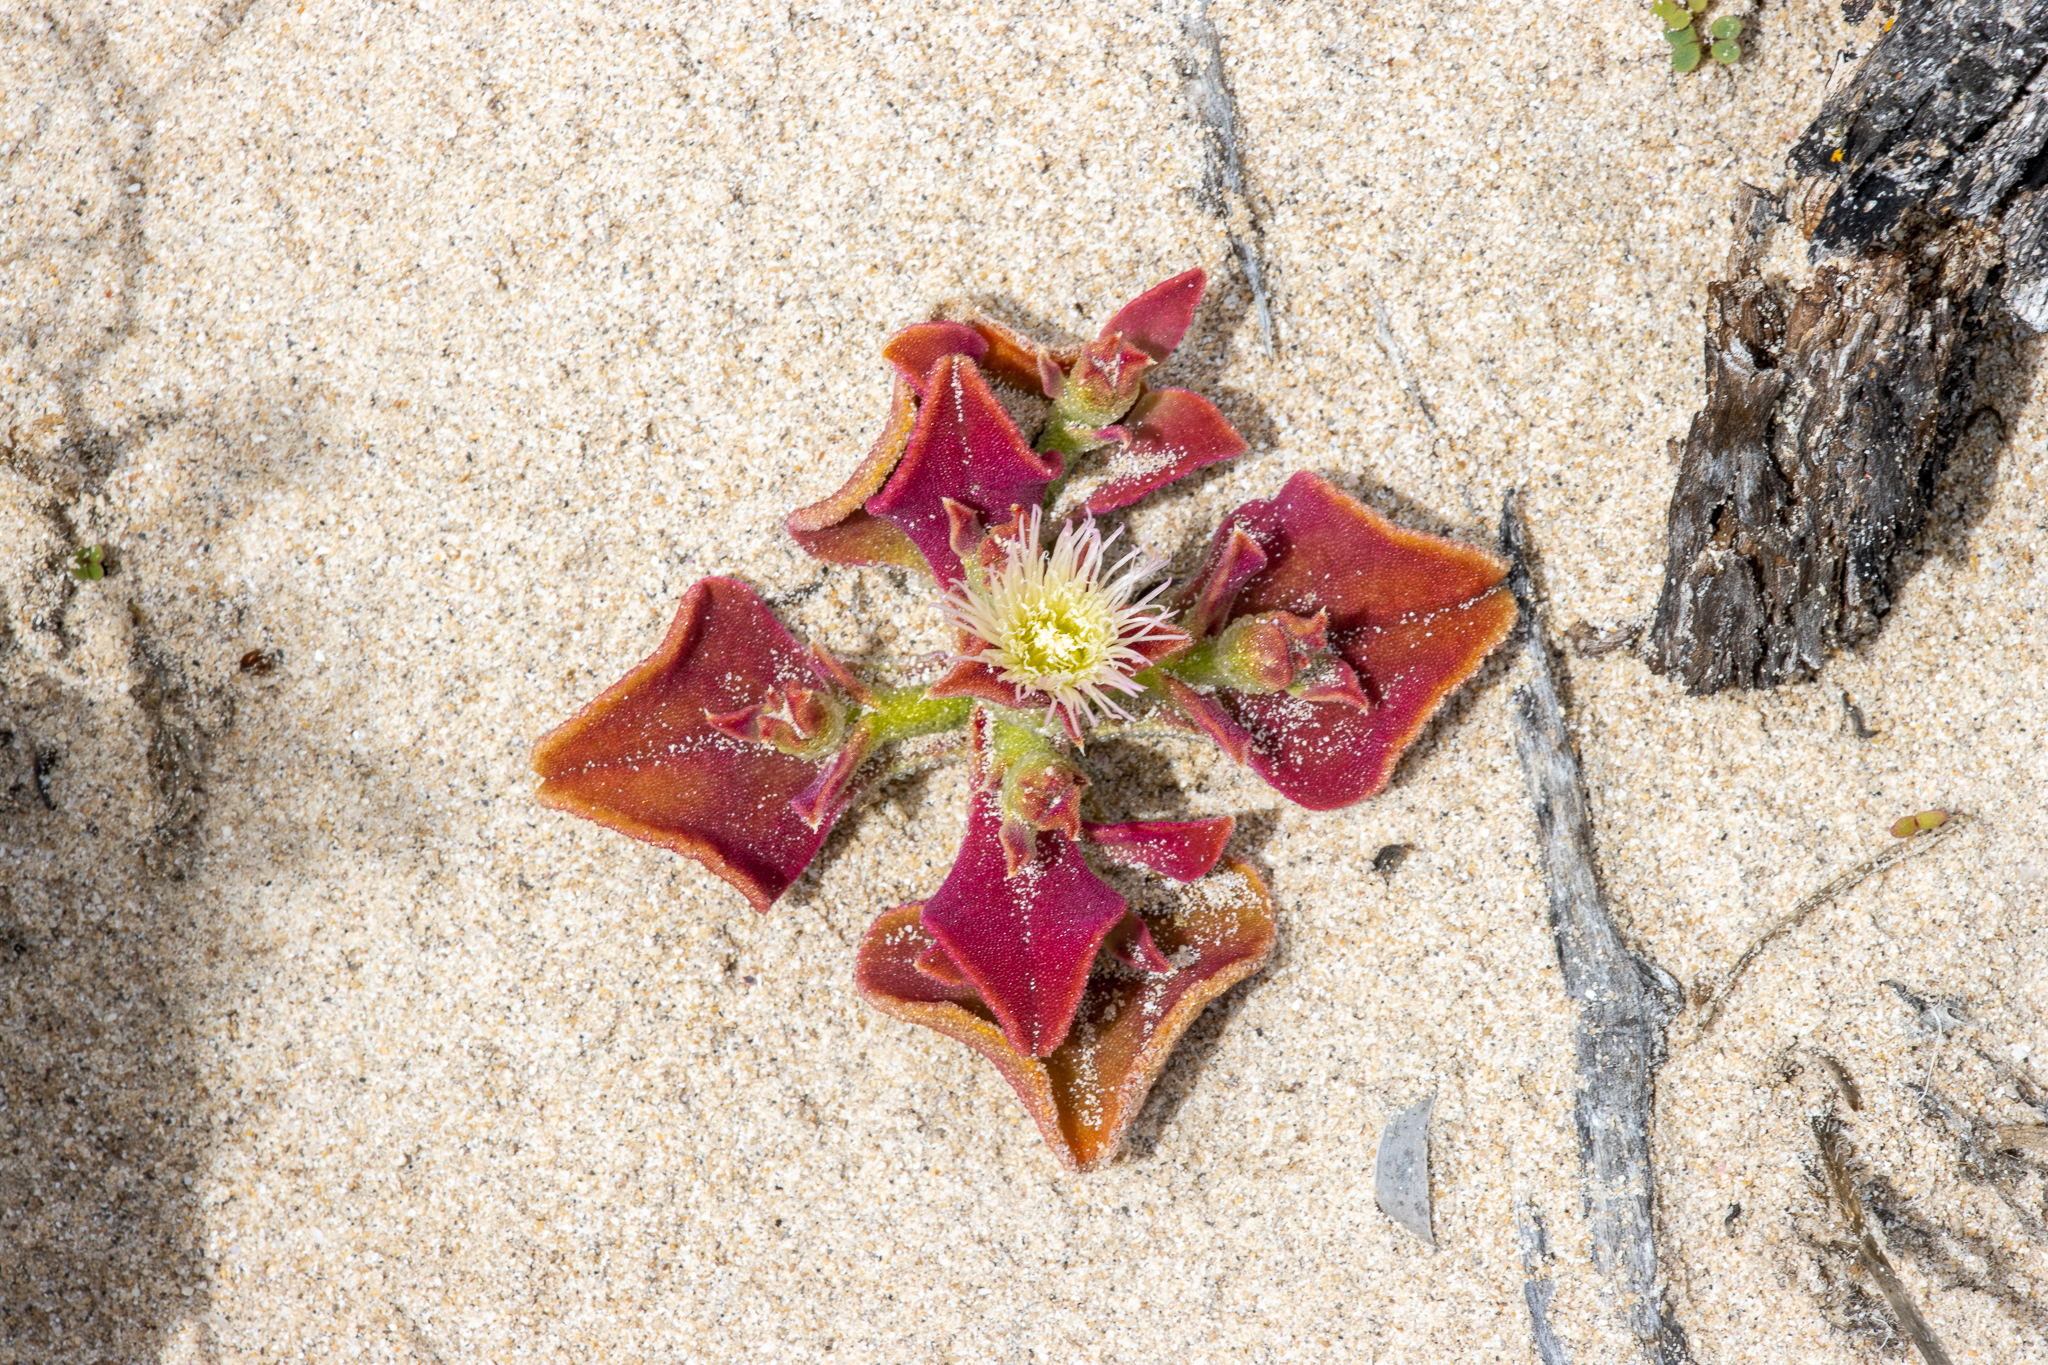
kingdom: Plantae
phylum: Tracheophyta
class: Magnoliopsida
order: Caryophyllales
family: Aizoaceae
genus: Mesembryanthemum
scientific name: Mesembryanthemum crystallinum
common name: Common iceplant
